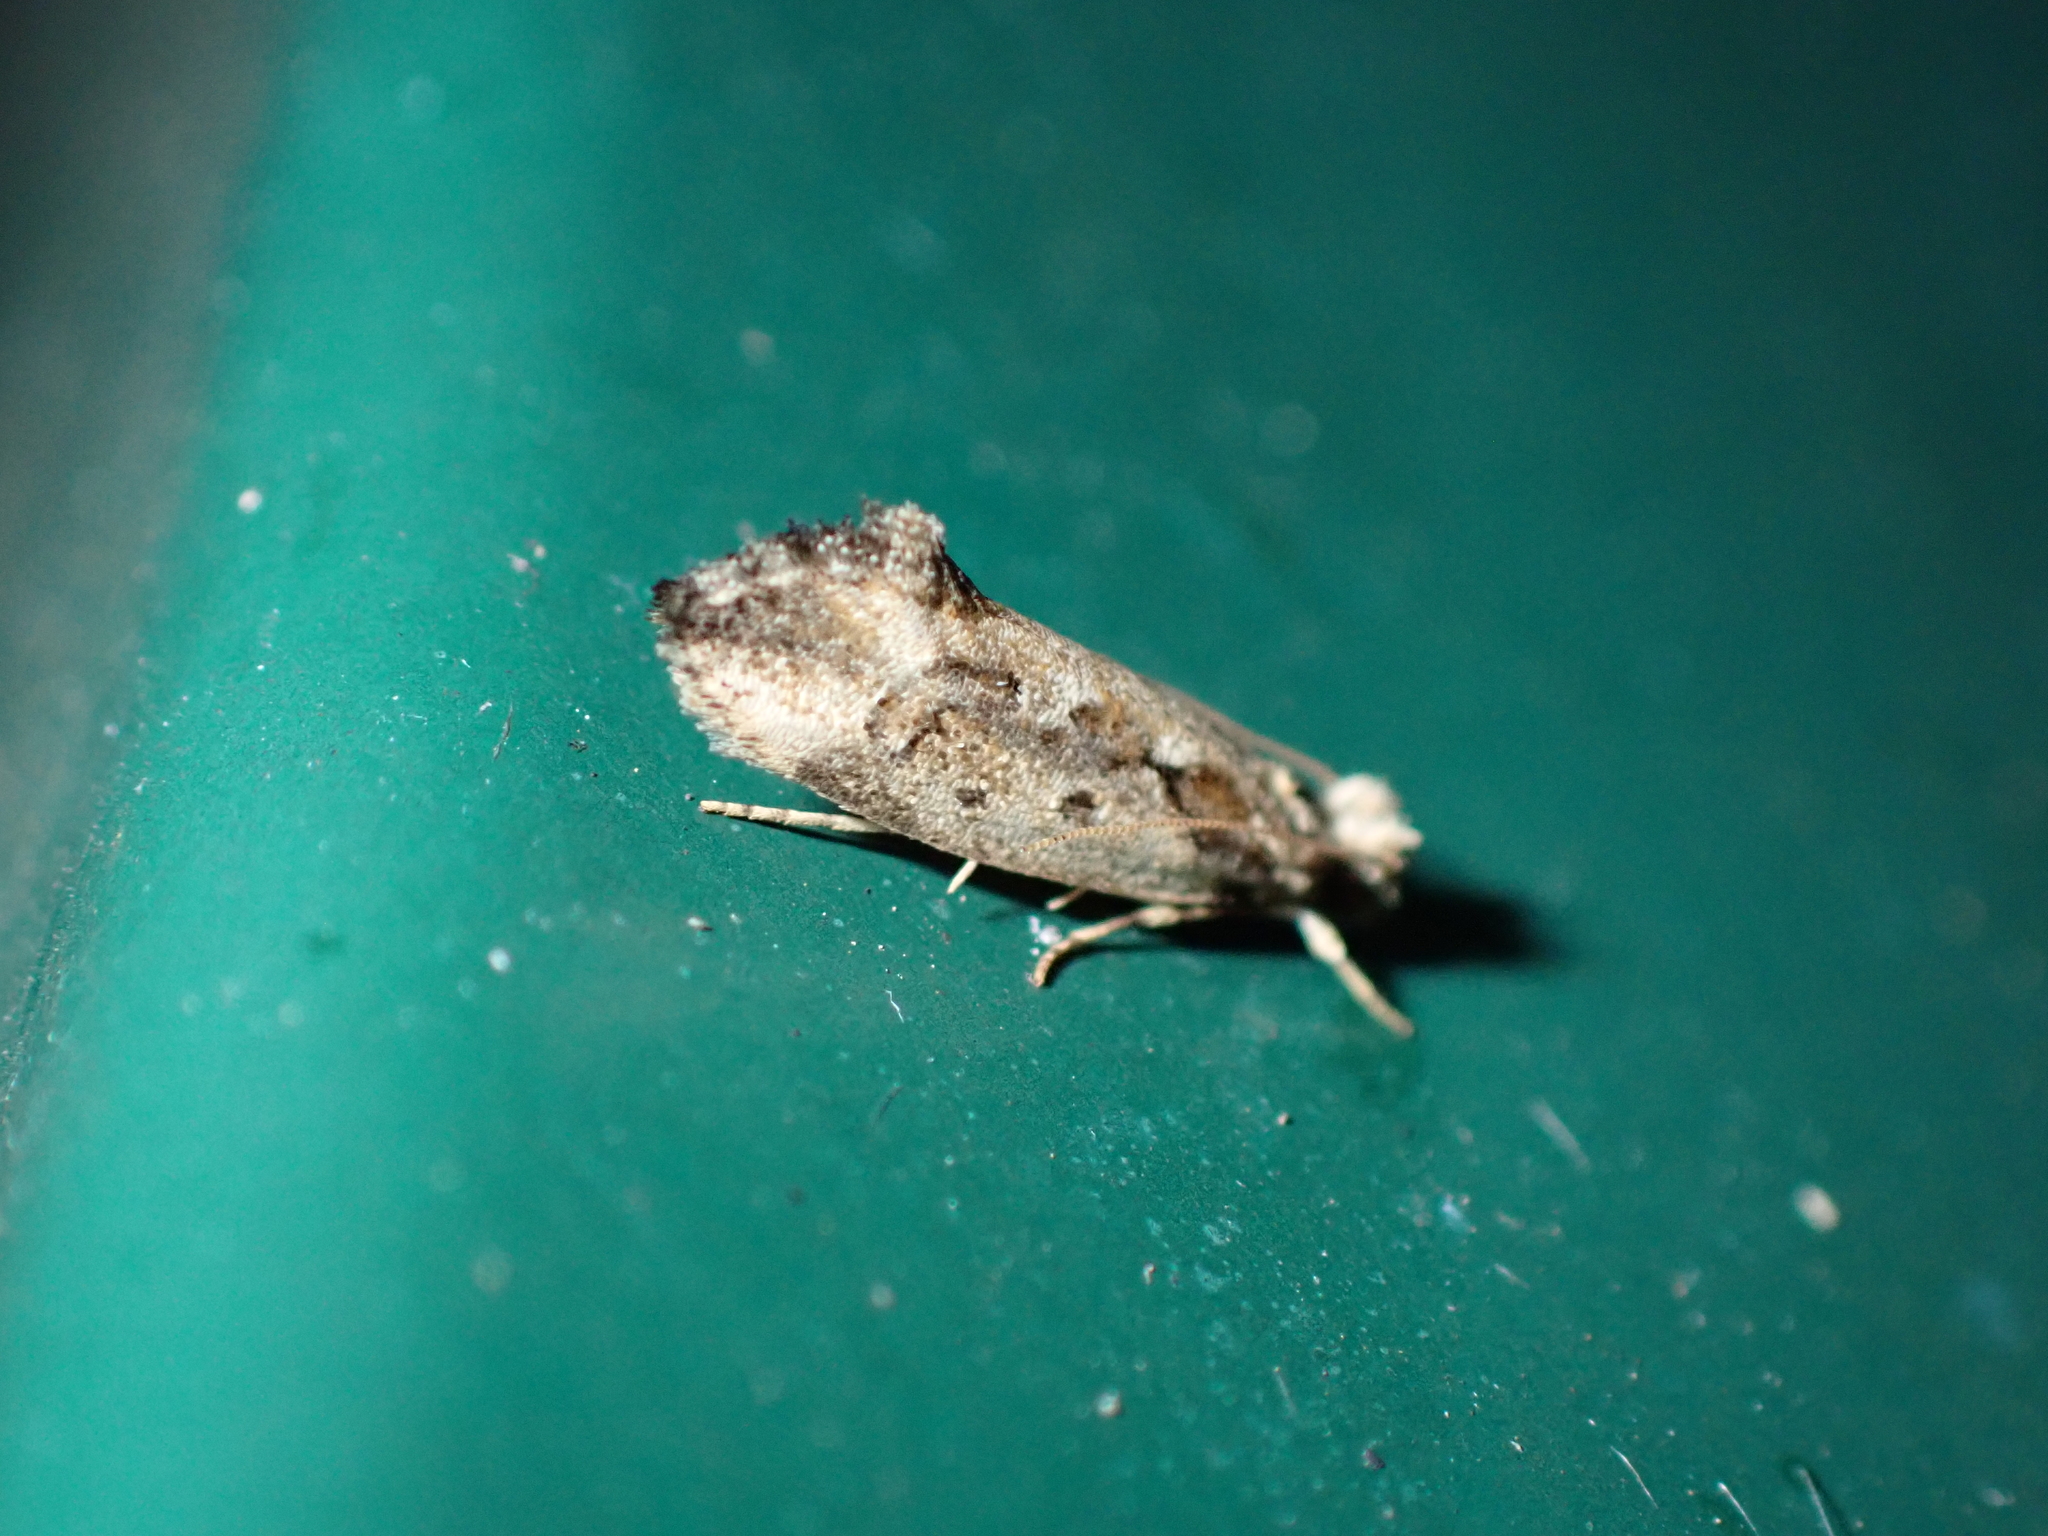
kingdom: Animalia
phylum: Arthropoda
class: Insecta
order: Lepidoptera
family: Tineidae
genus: Erechthias
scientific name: Erechthias capnitis
